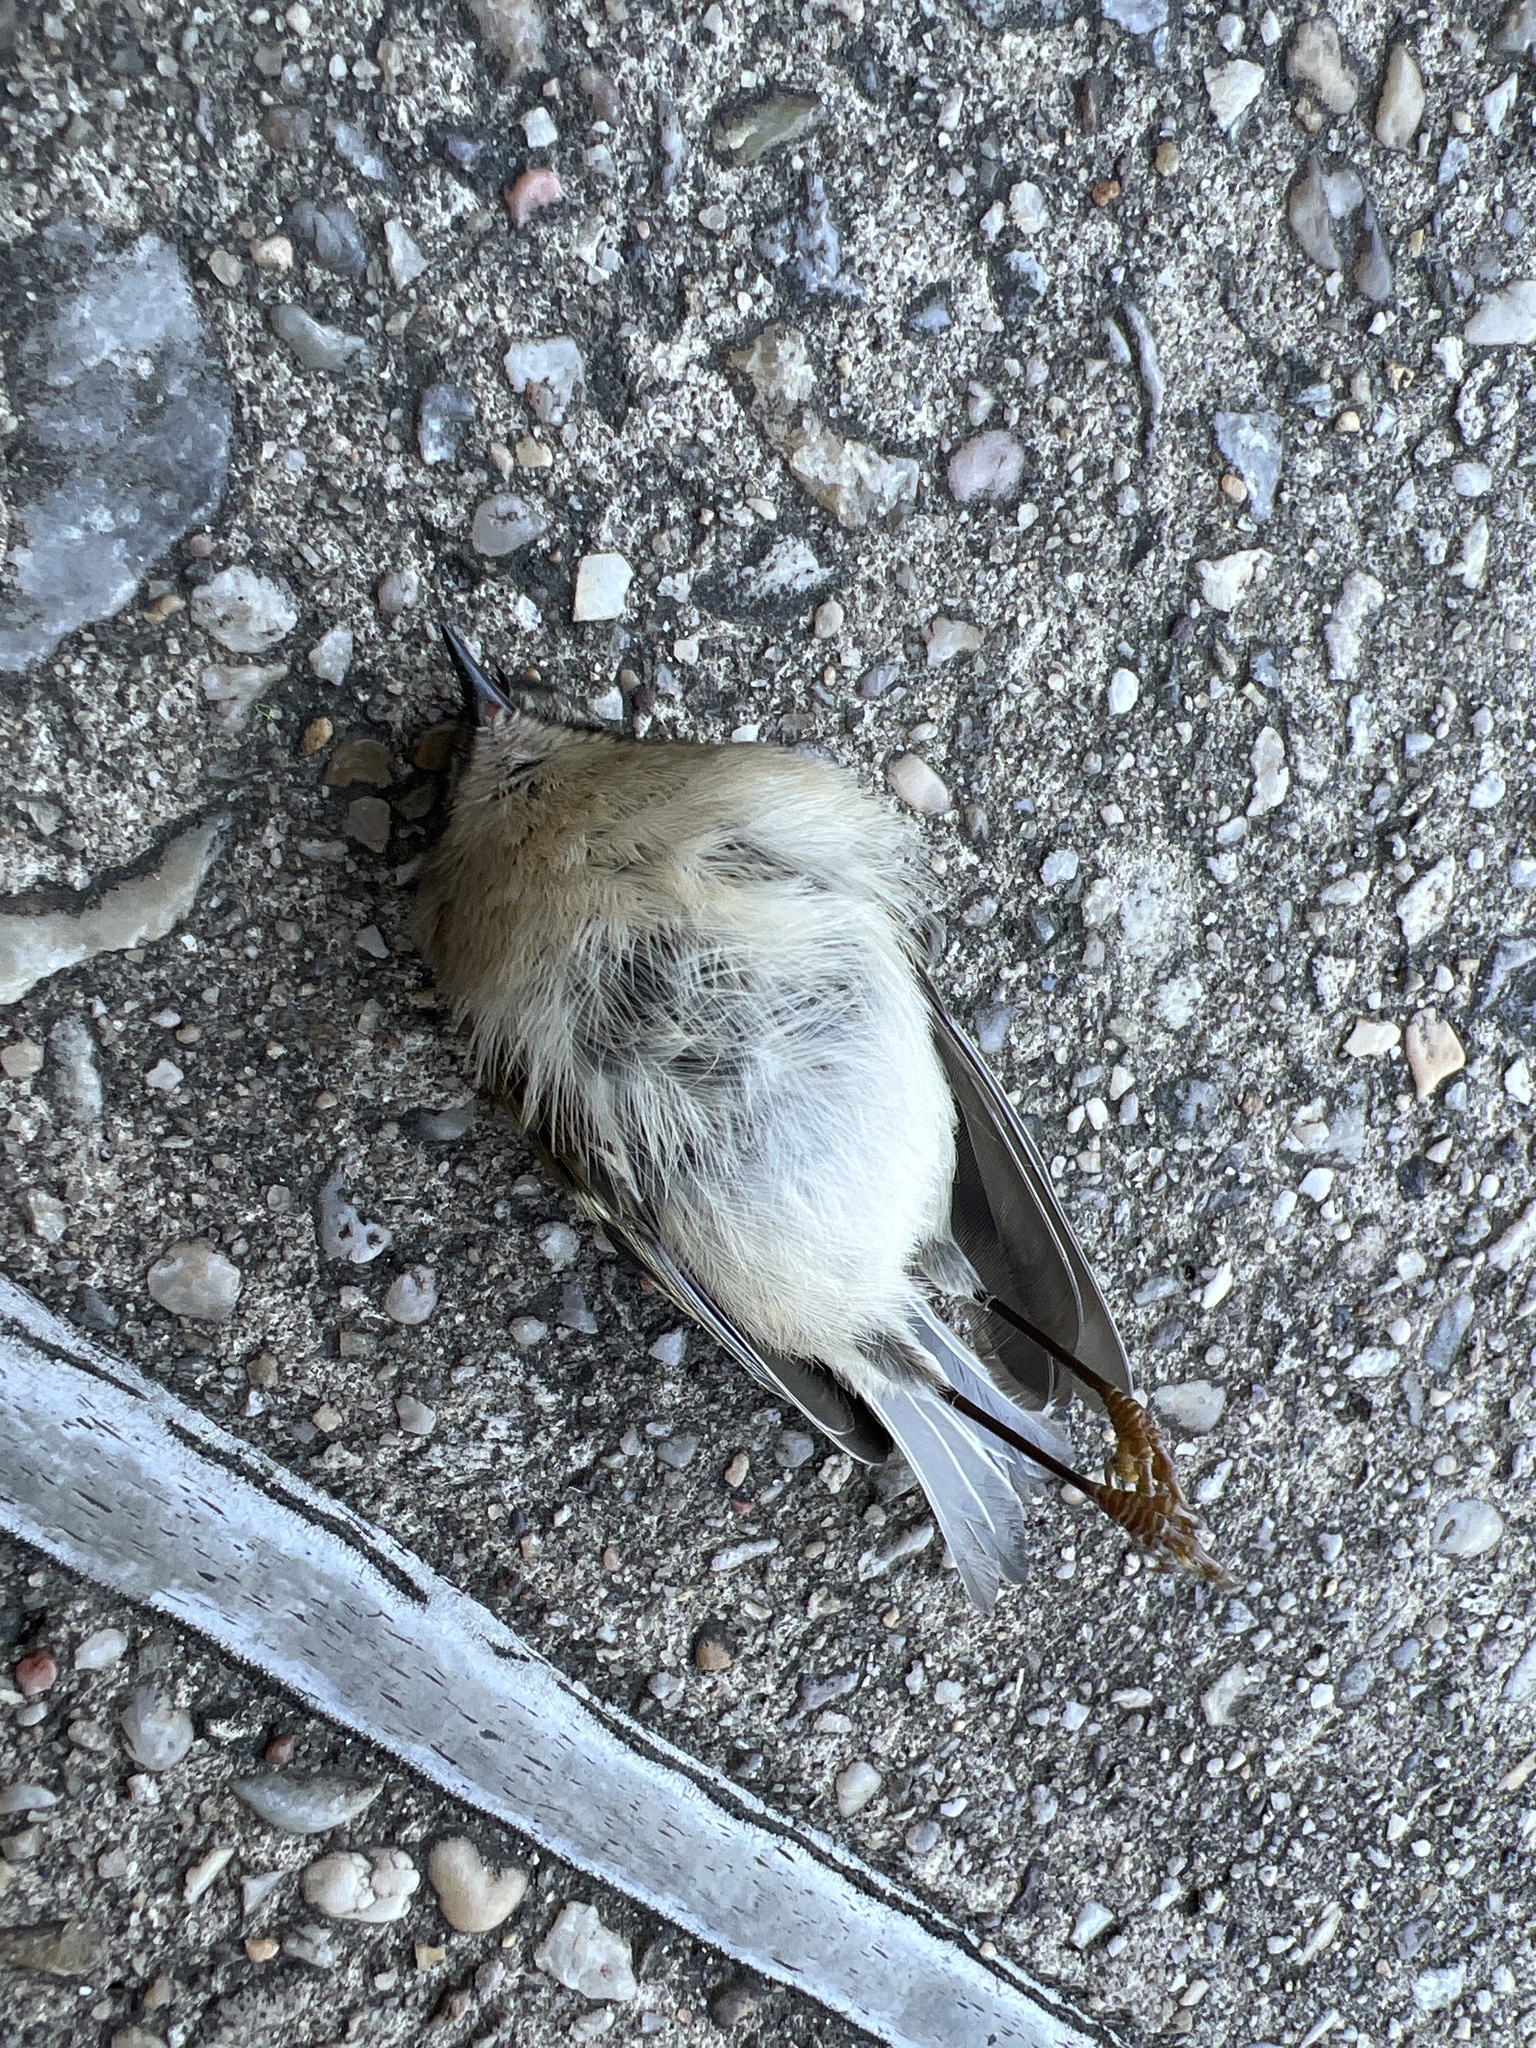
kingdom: Animalia
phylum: Chordata
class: Aves
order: Passeriformes
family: Regulidae
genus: Regulus
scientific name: Regulus satrapa
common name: Golden-crowned kinglet
